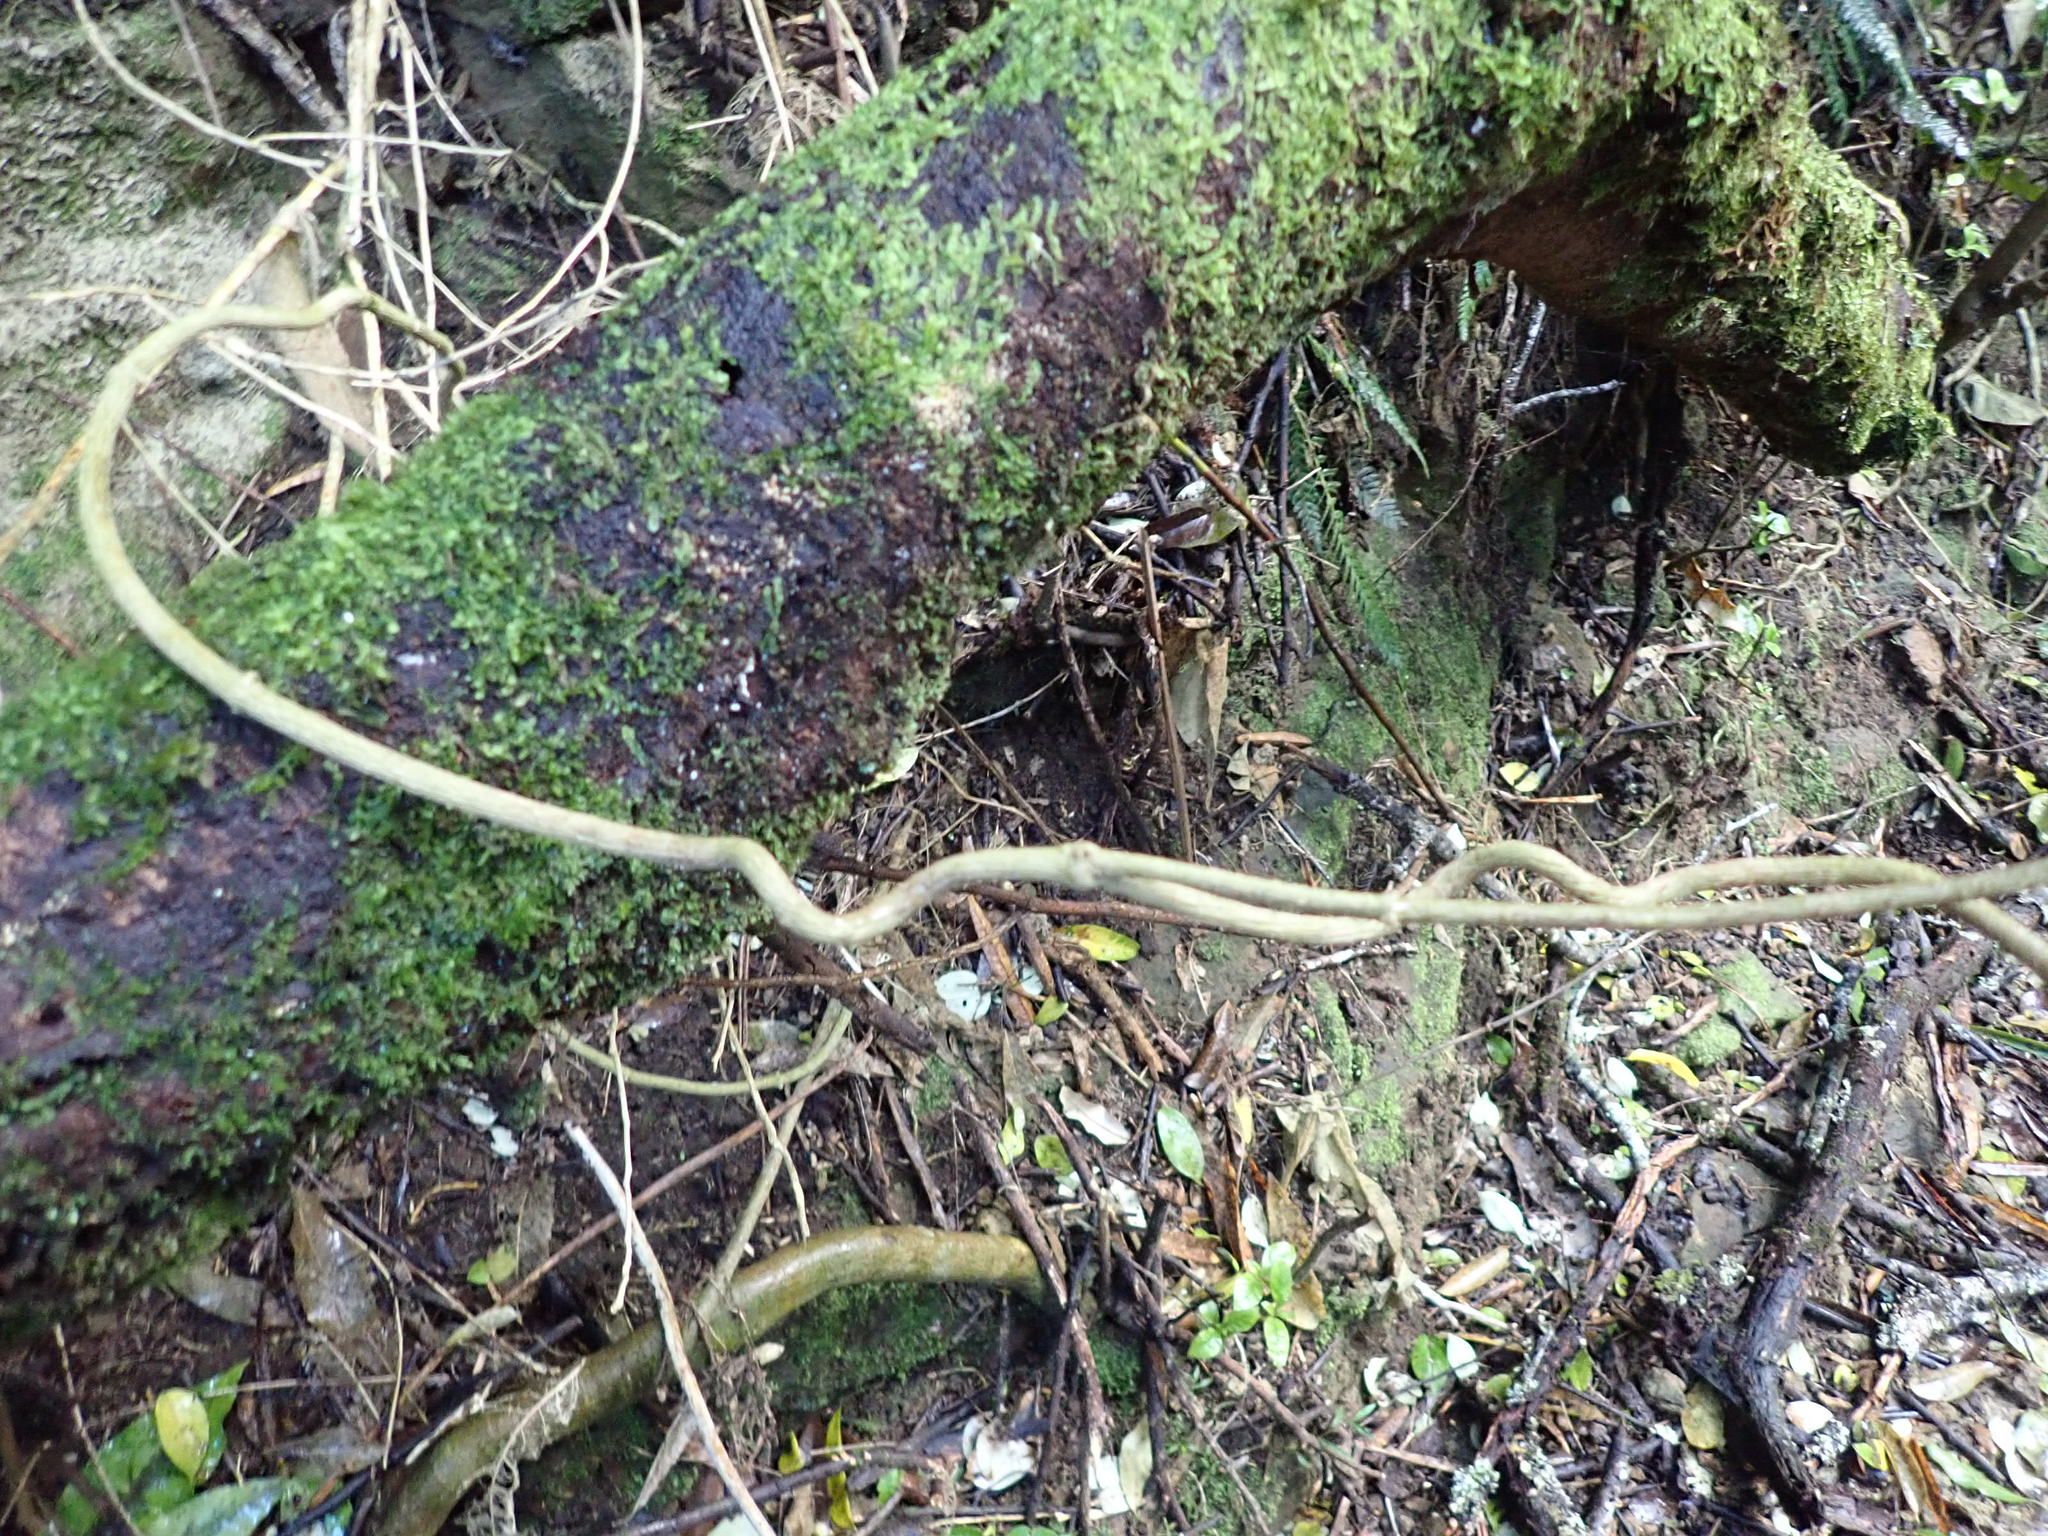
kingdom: Plantae
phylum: Tracheophyta
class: Magnoliopsida
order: Gentianales
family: Apocynaceae
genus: Araujia
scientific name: Araujia sericifera
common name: White bladderflower
